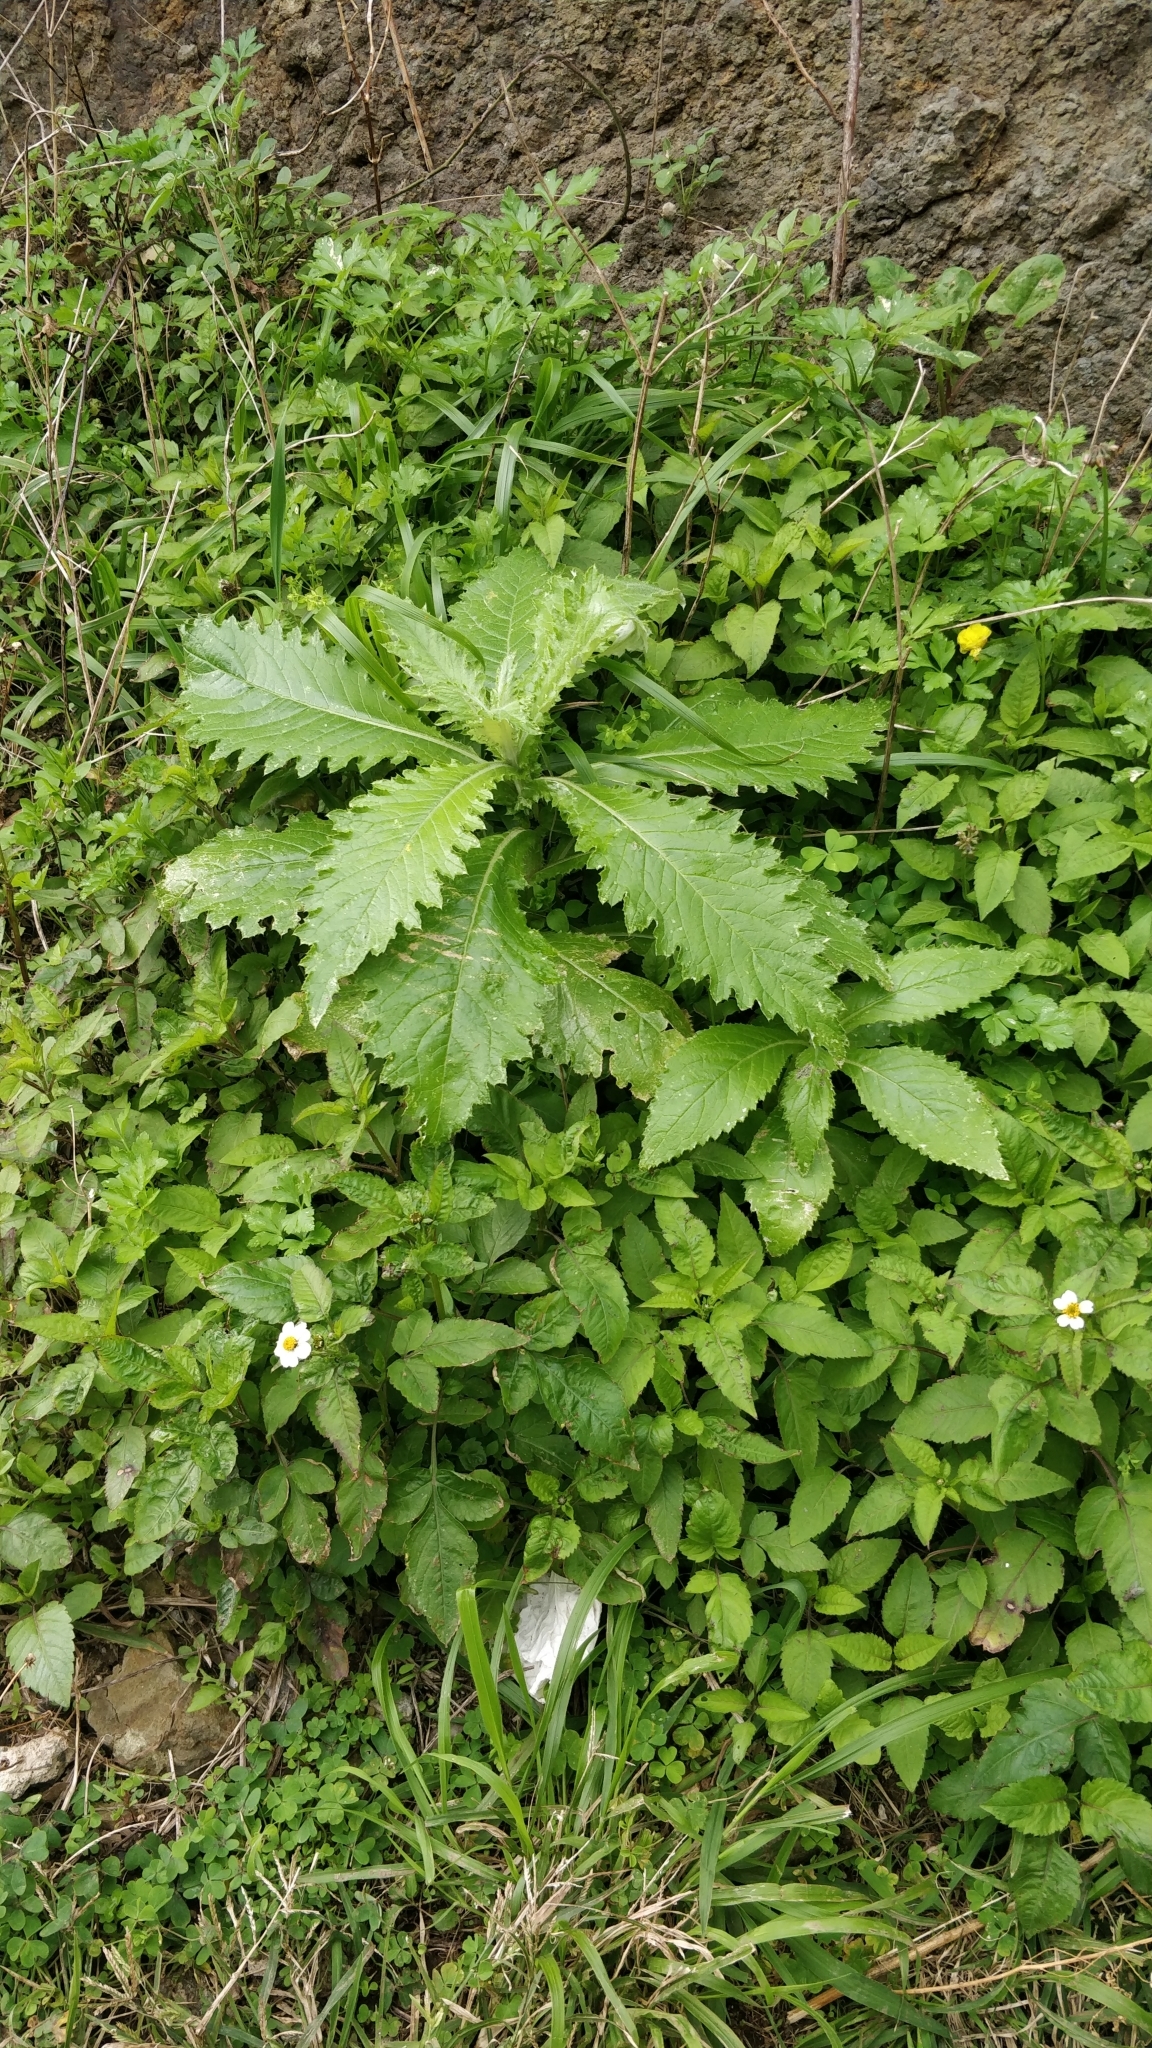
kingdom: Plantae
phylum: Tracheophyta
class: Magnoliopsida
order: Asterales
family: Asteraceae
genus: Carduus
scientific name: Carduus squarrosus
